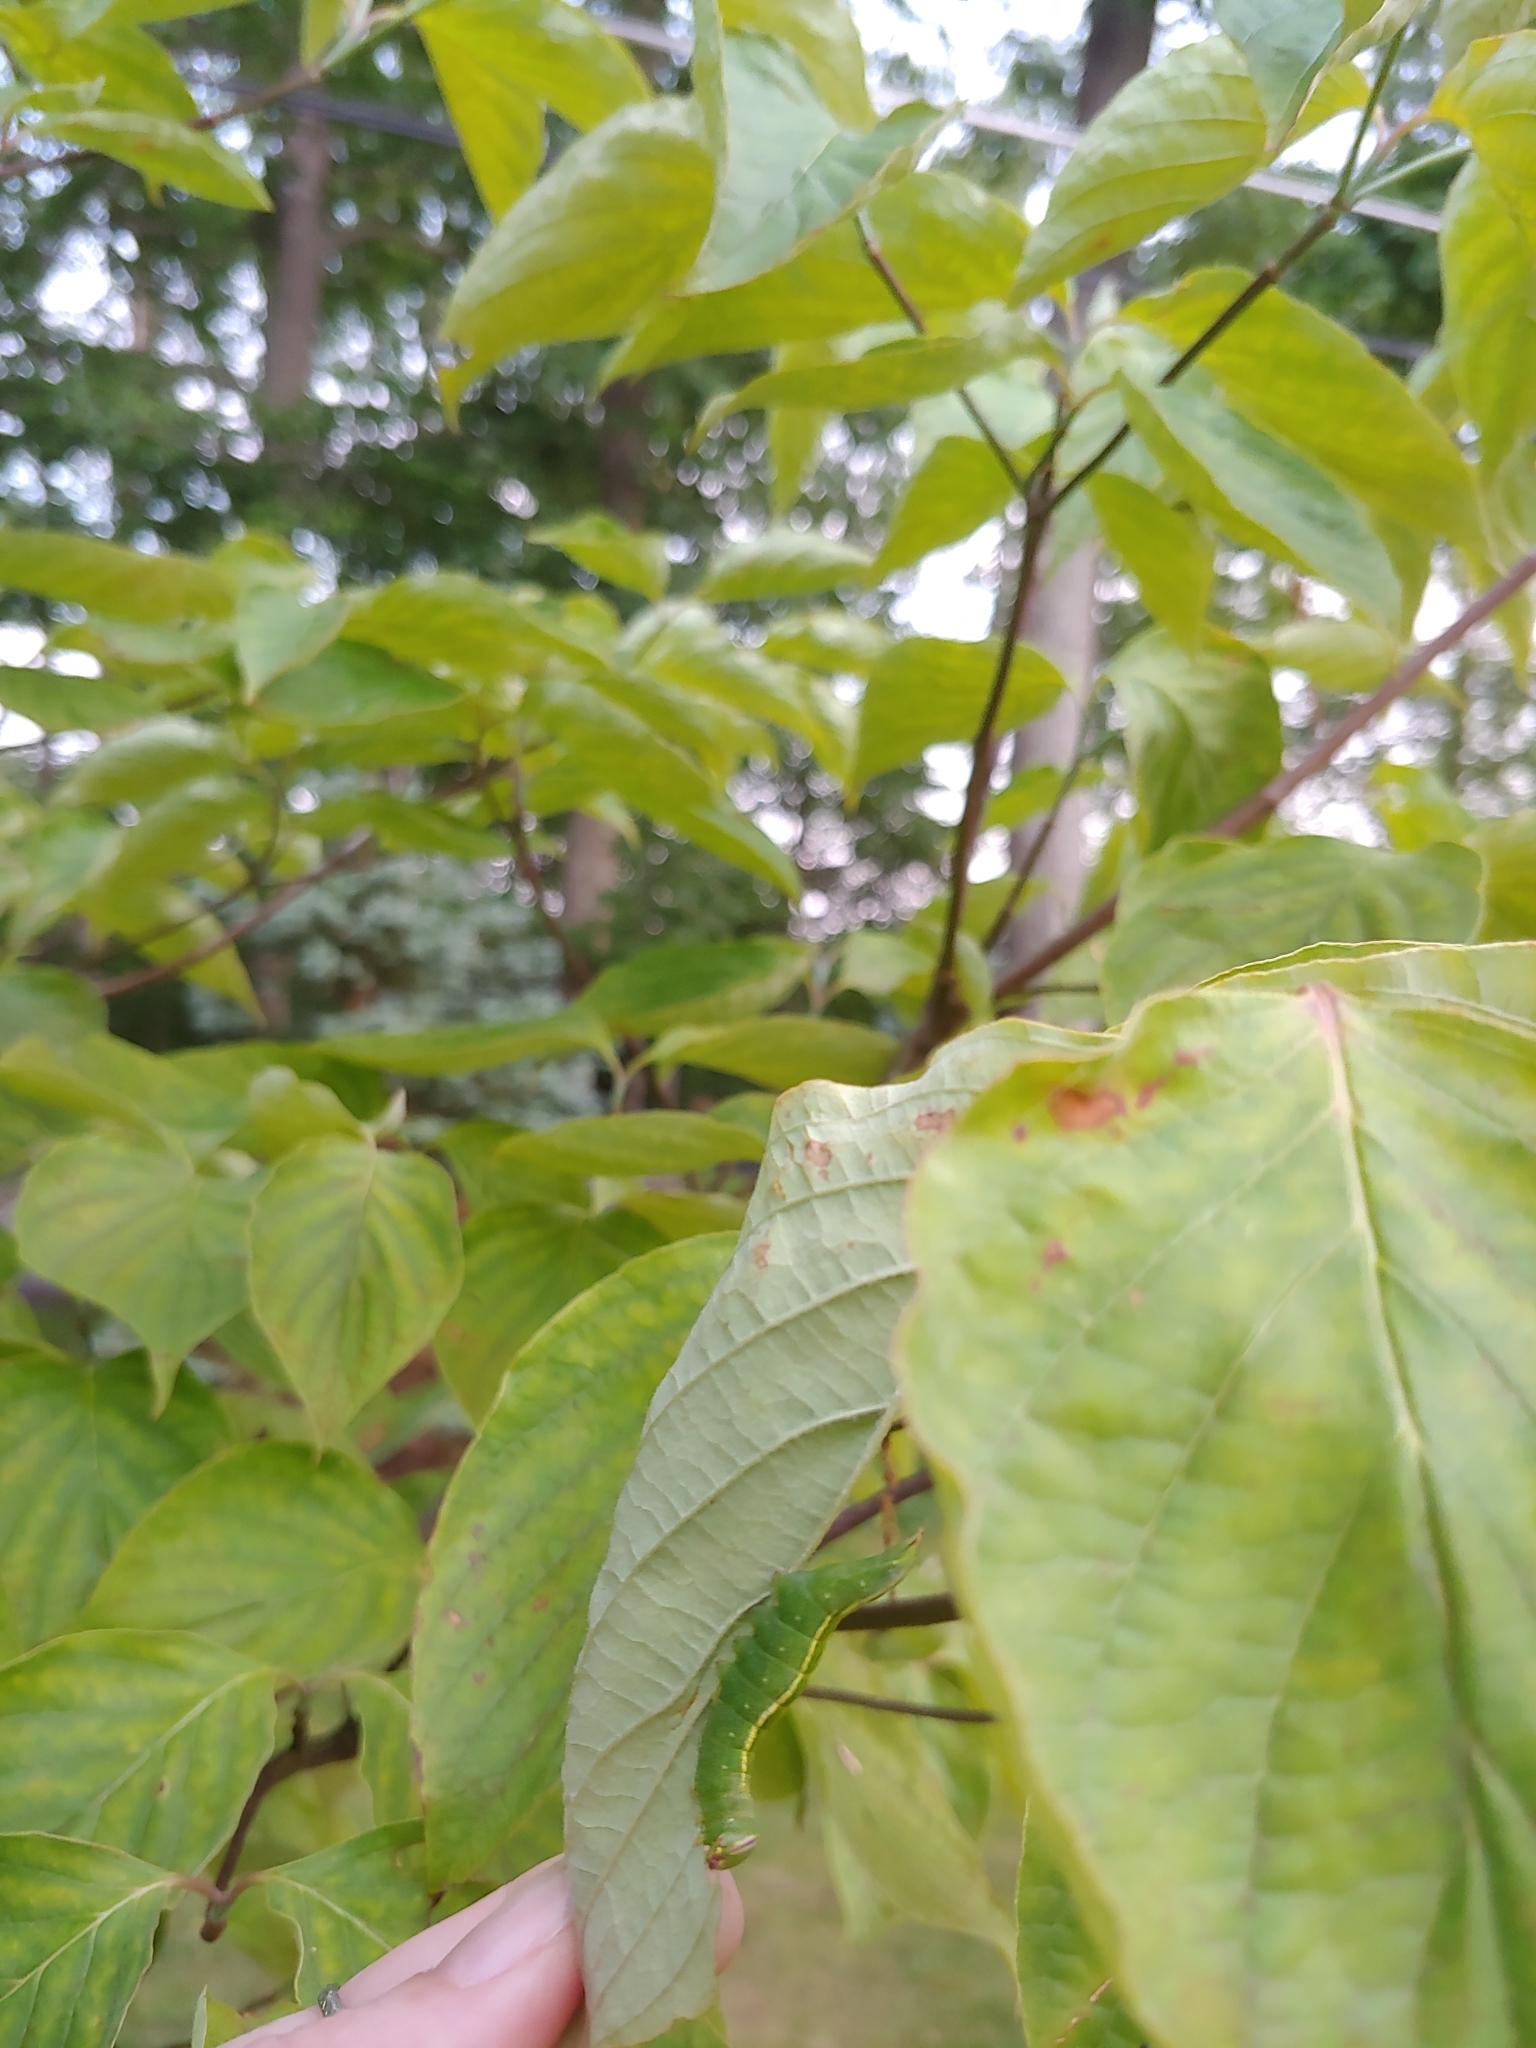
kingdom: Animalia
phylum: Arthropoda
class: Insecta
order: Lepidoptera
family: Notodontidae
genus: Disphragis
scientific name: Disphragis Cecrita guttivitta
